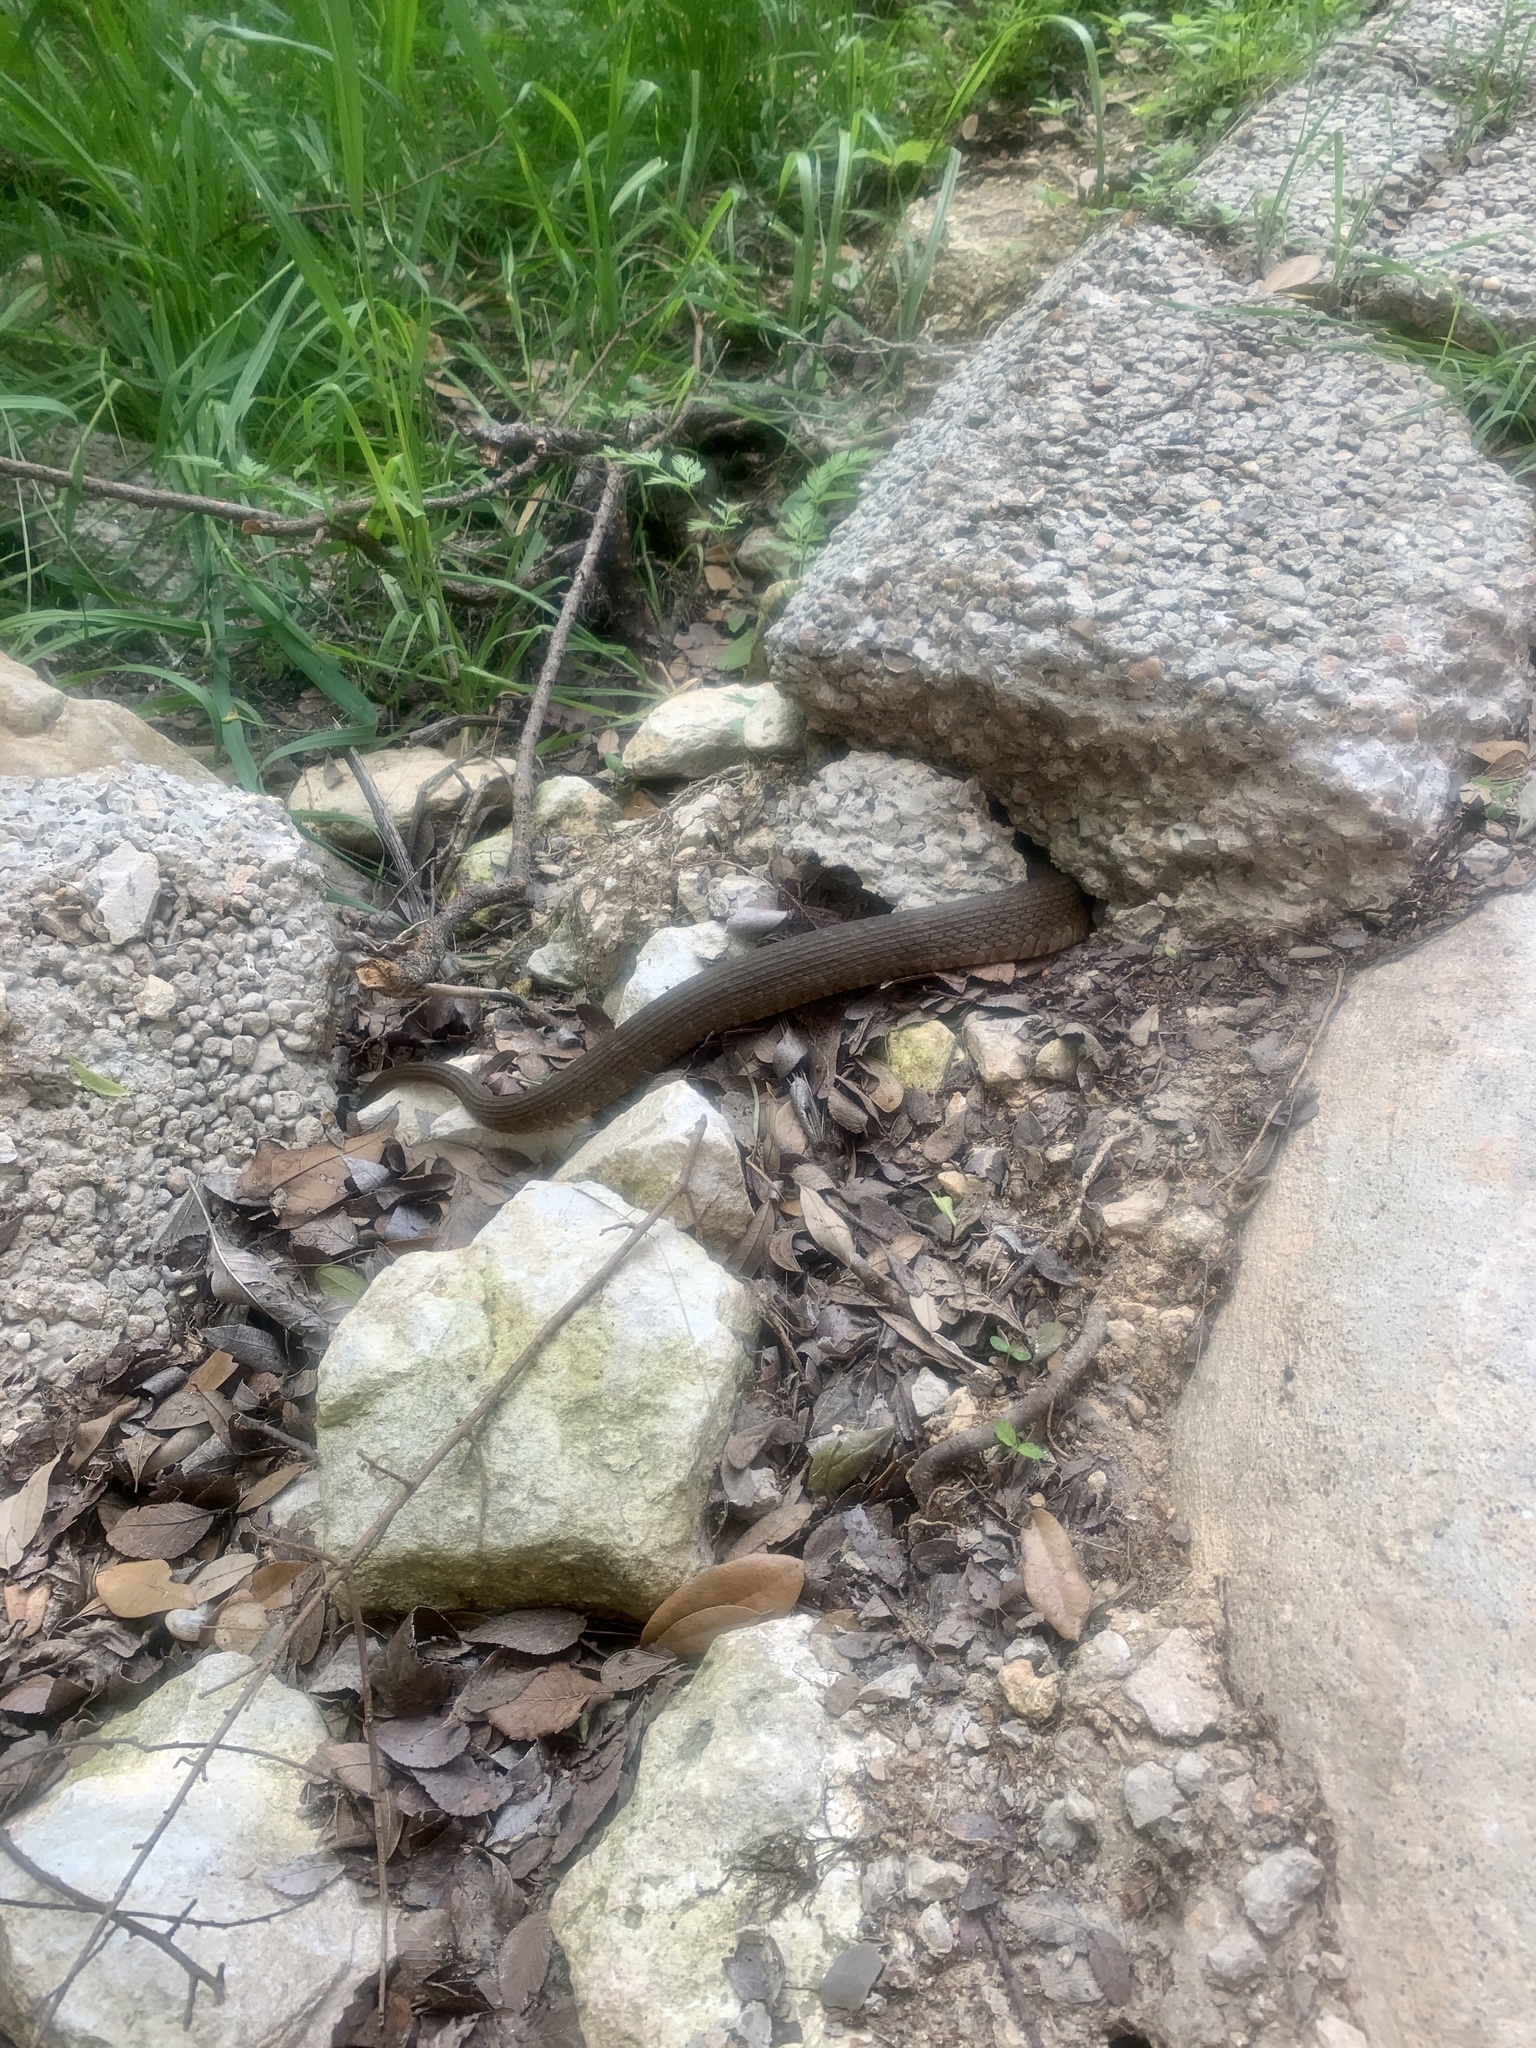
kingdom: Animalia
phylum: Chordata
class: Squamata
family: Colubridae
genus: Nerodia
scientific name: Nerodia erythrogaster
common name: Plainbelly water snake
